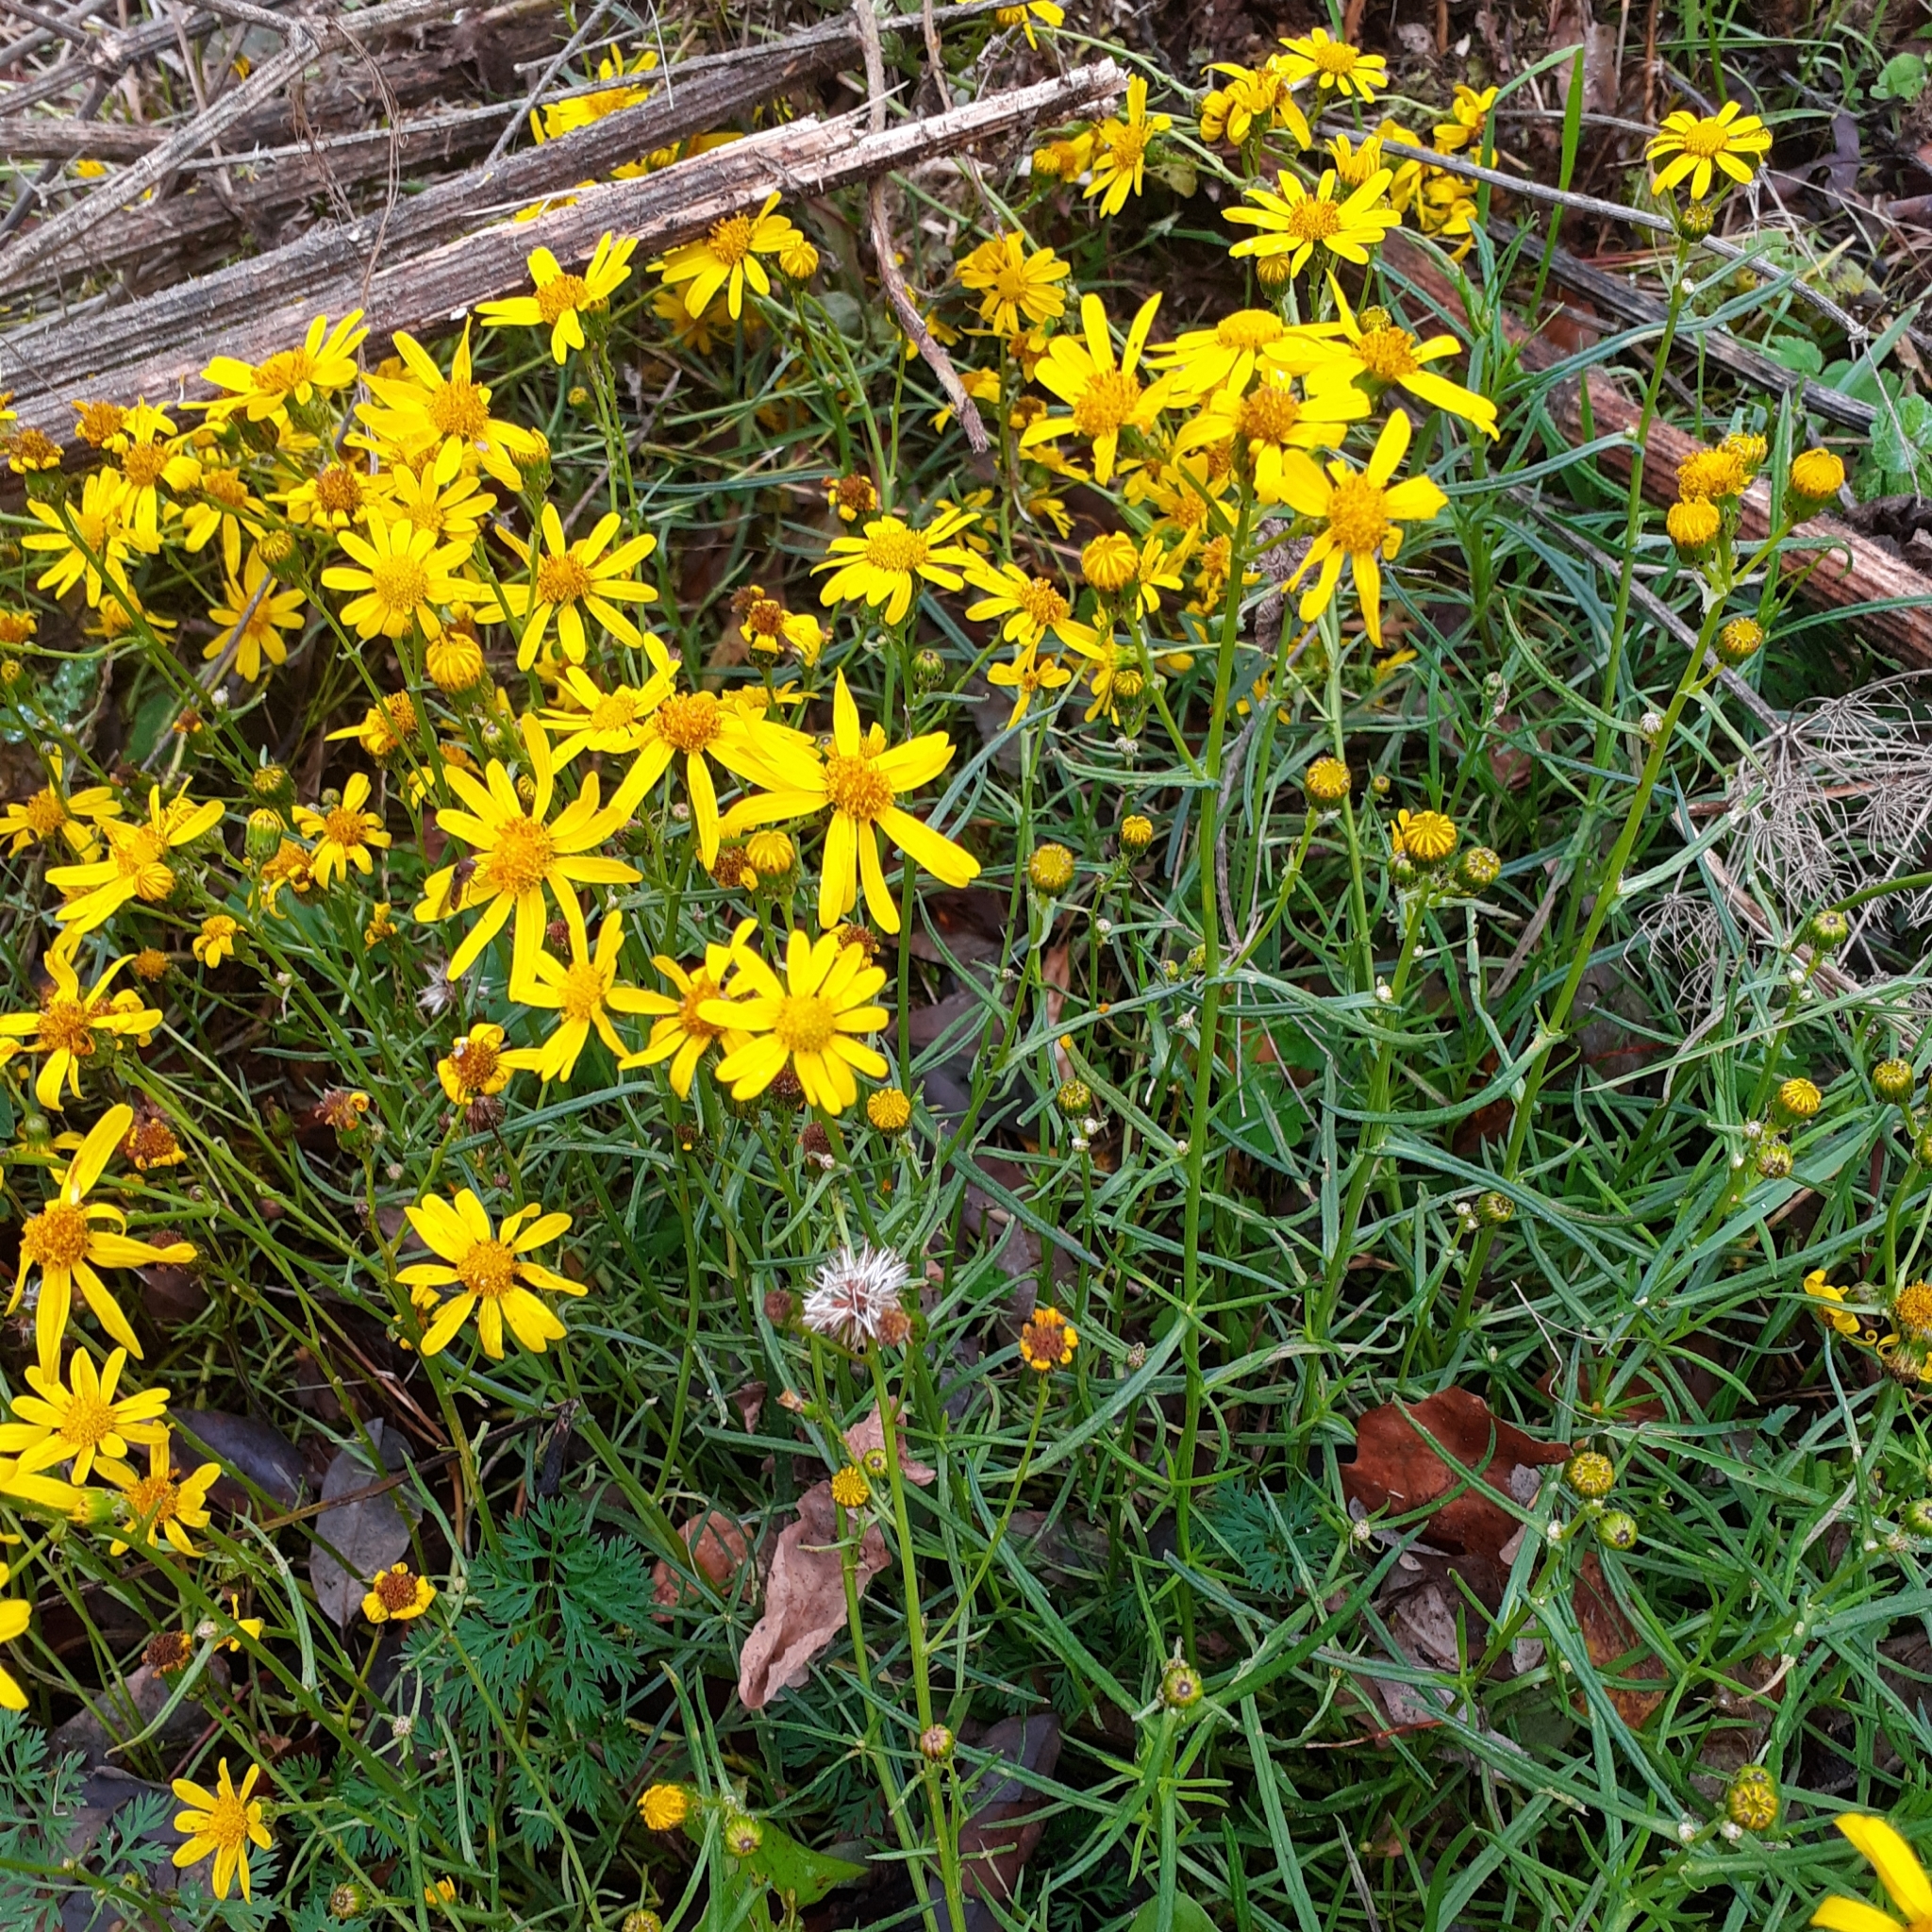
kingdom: Plantae
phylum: Tracheophyta
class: Magnoliopsida
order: Asterales
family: Asteraceae
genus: Senecio
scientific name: Senecio inaequidens
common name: Narrow-leaved ragwort
